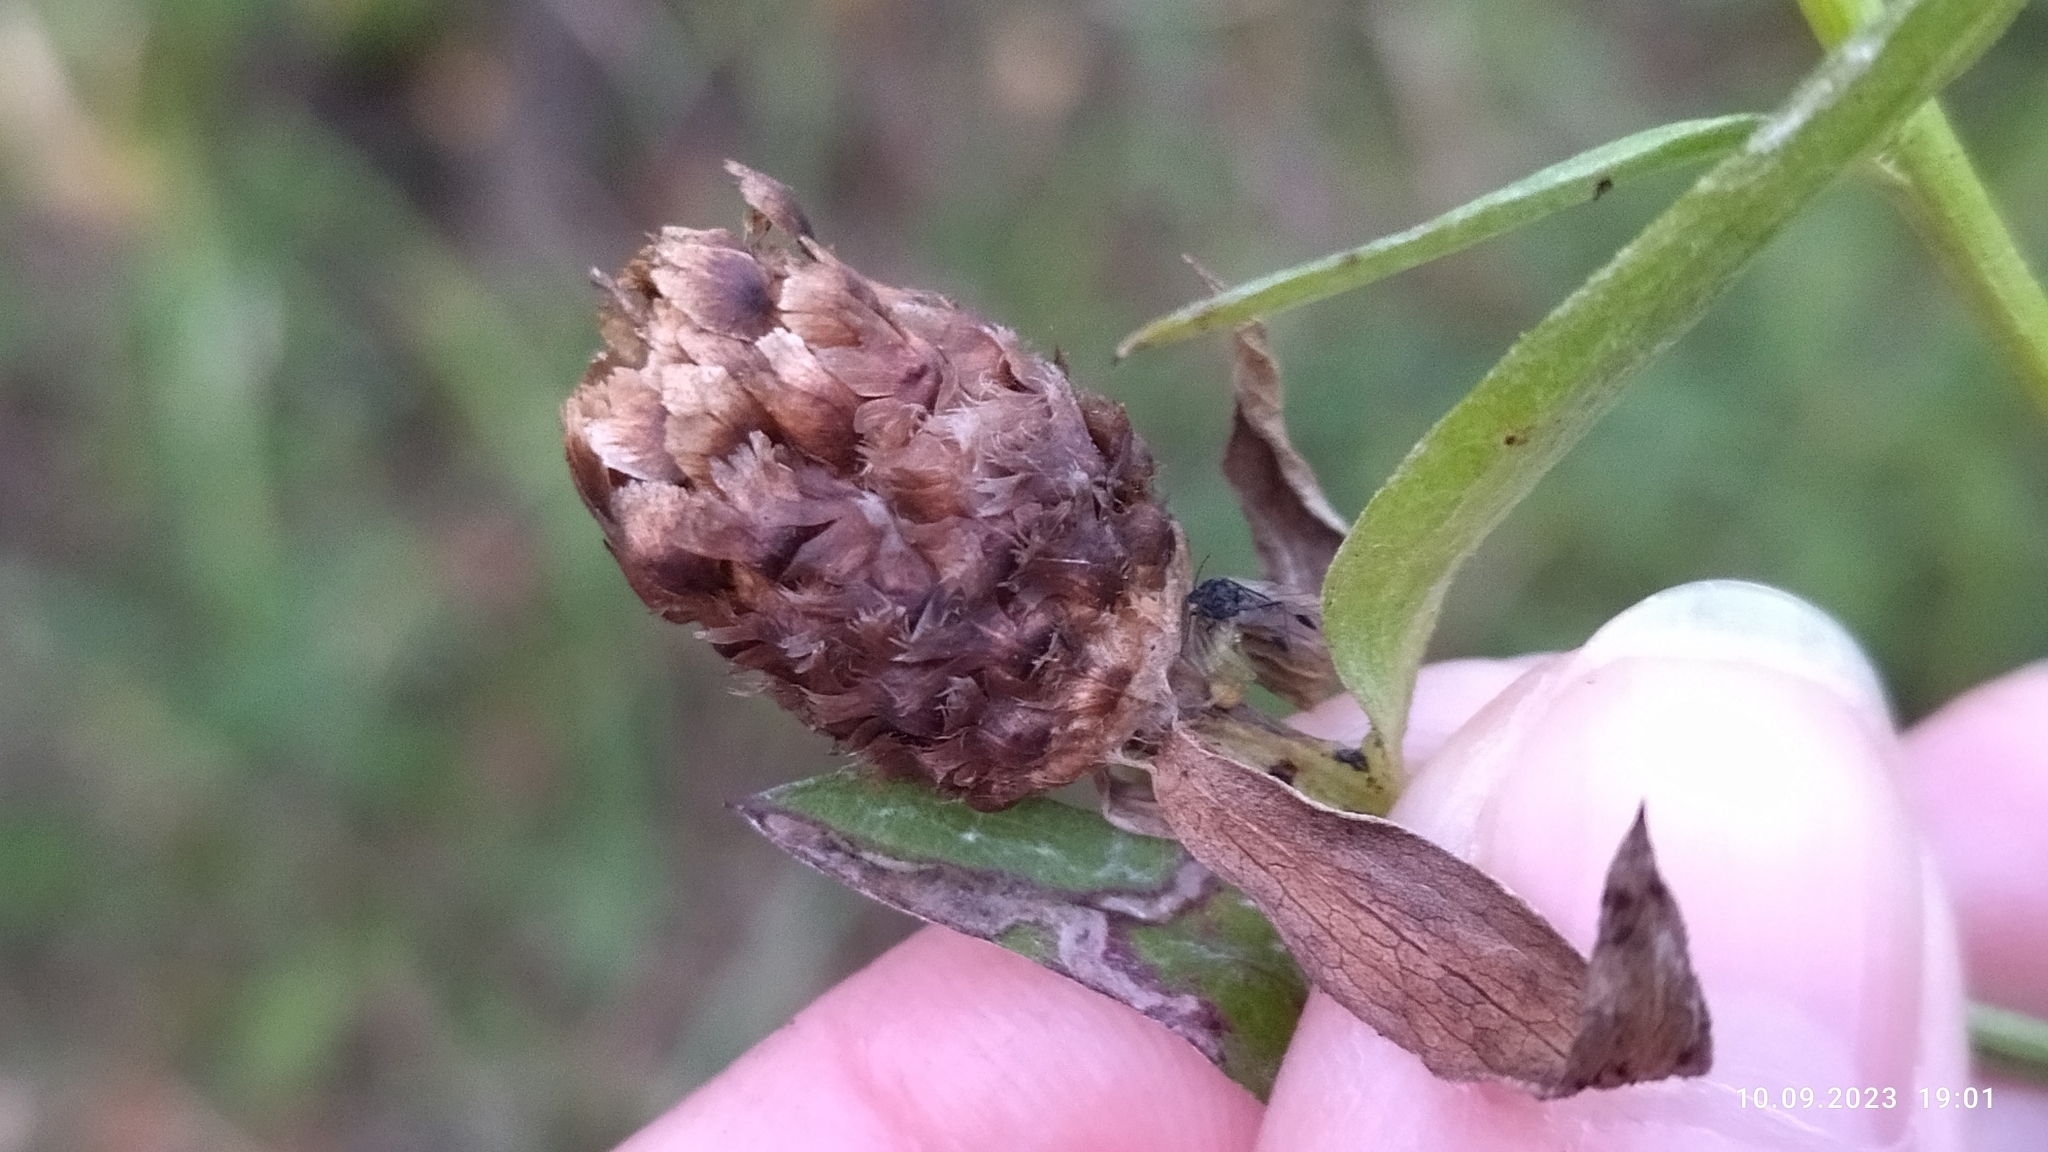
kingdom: Plantae
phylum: Tracheophyta
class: Magnoliopsida
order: Asterales
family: Asteraceae
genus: Centaurea
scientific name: Centaurea jacea
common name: Brown knapweed
